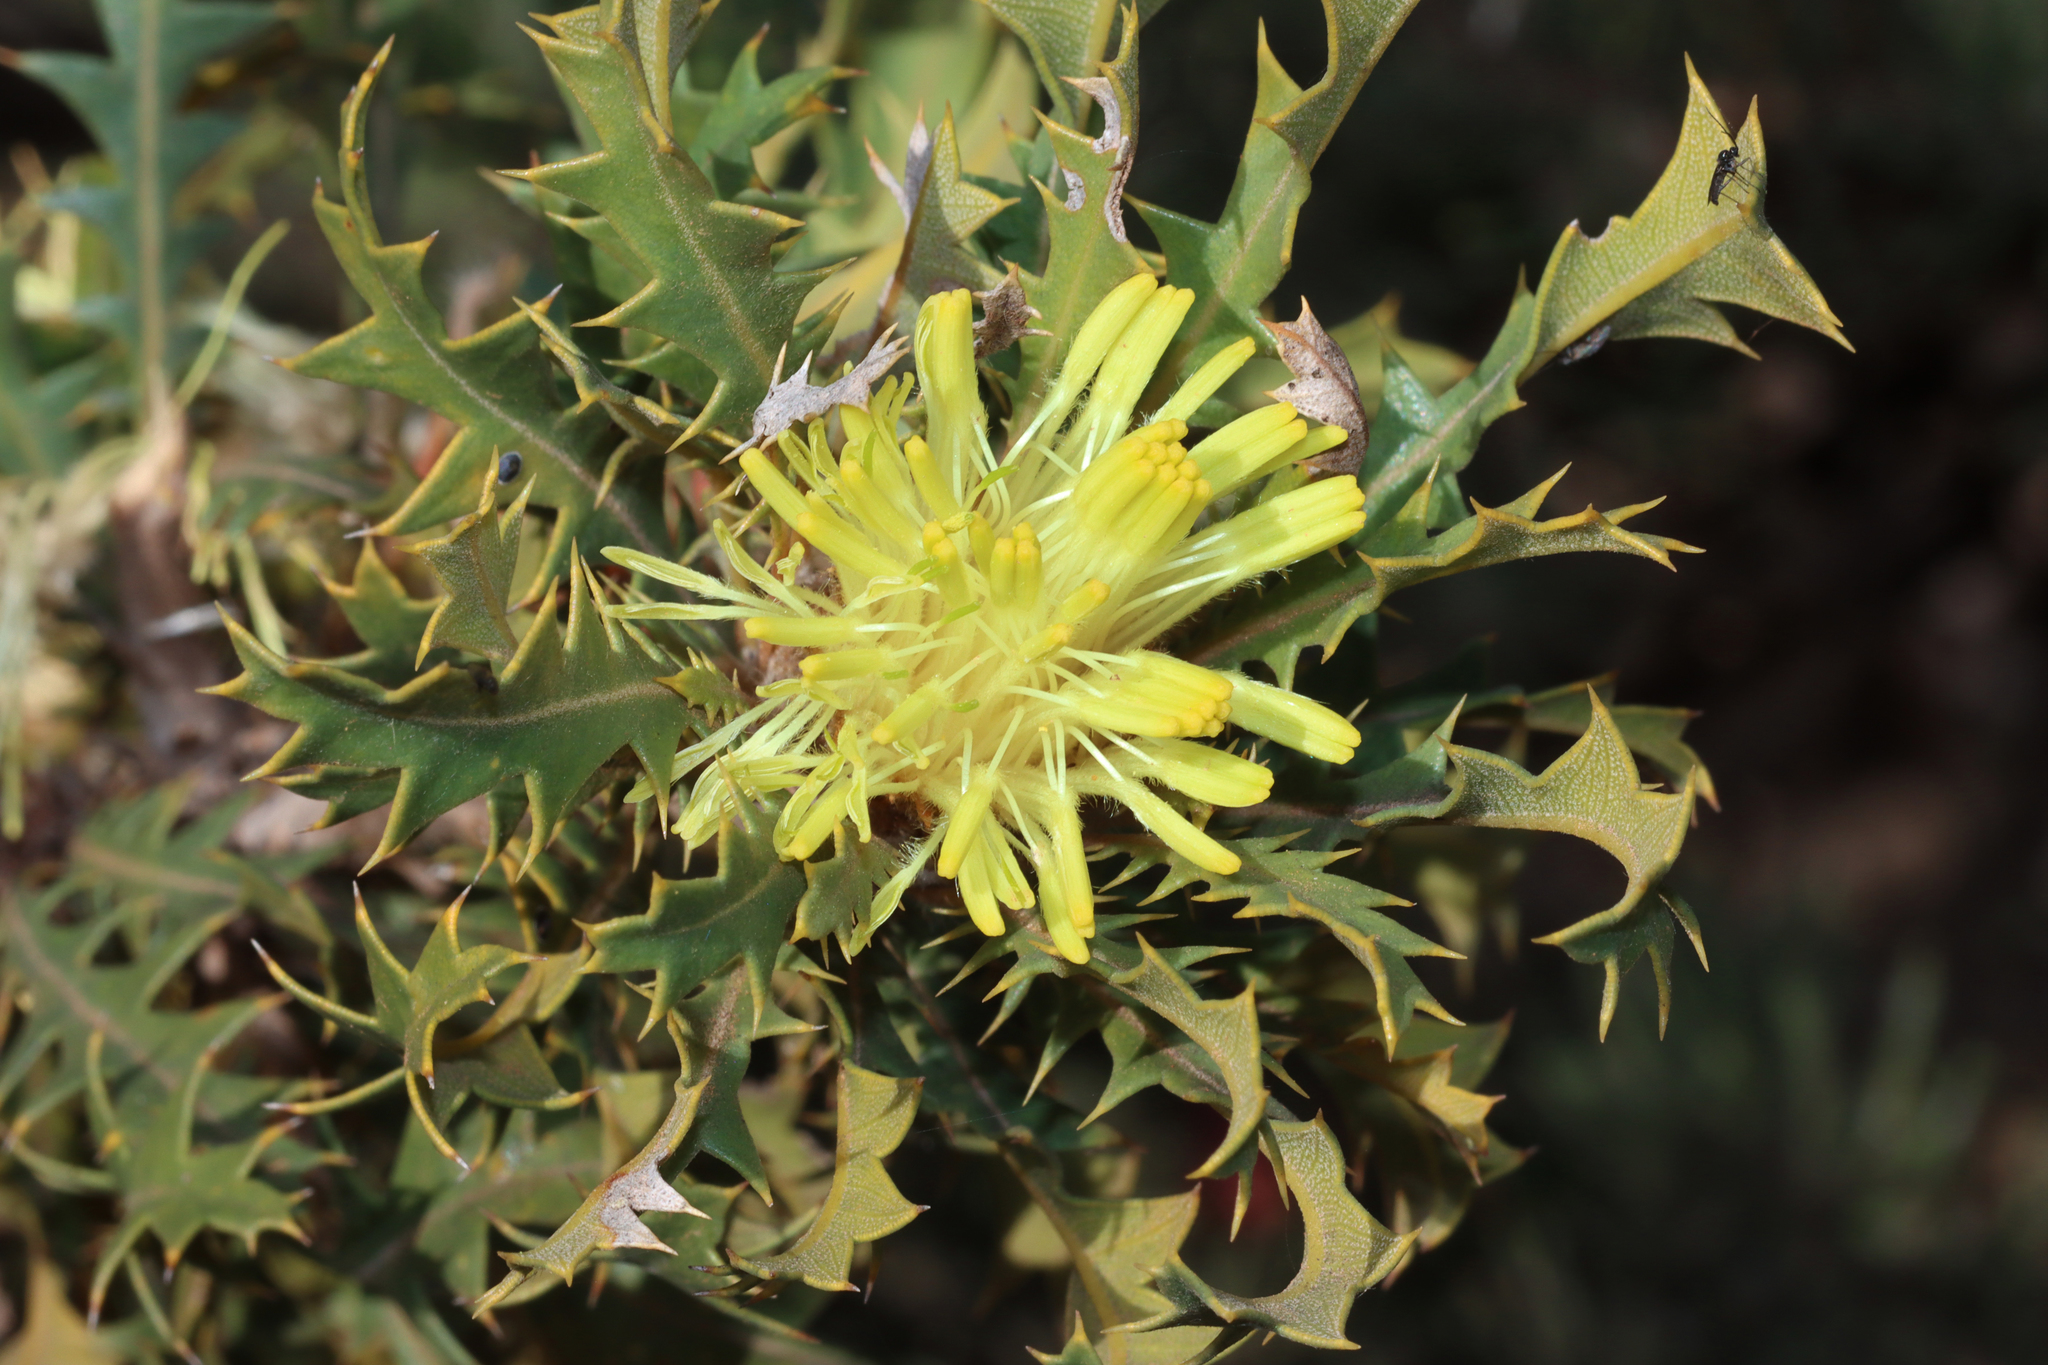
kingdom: Plantae
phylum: Tracheophyta
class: Magnoliopsida
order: Proteales
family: Proteaceae
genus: Banksia
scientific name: Banksia armata
